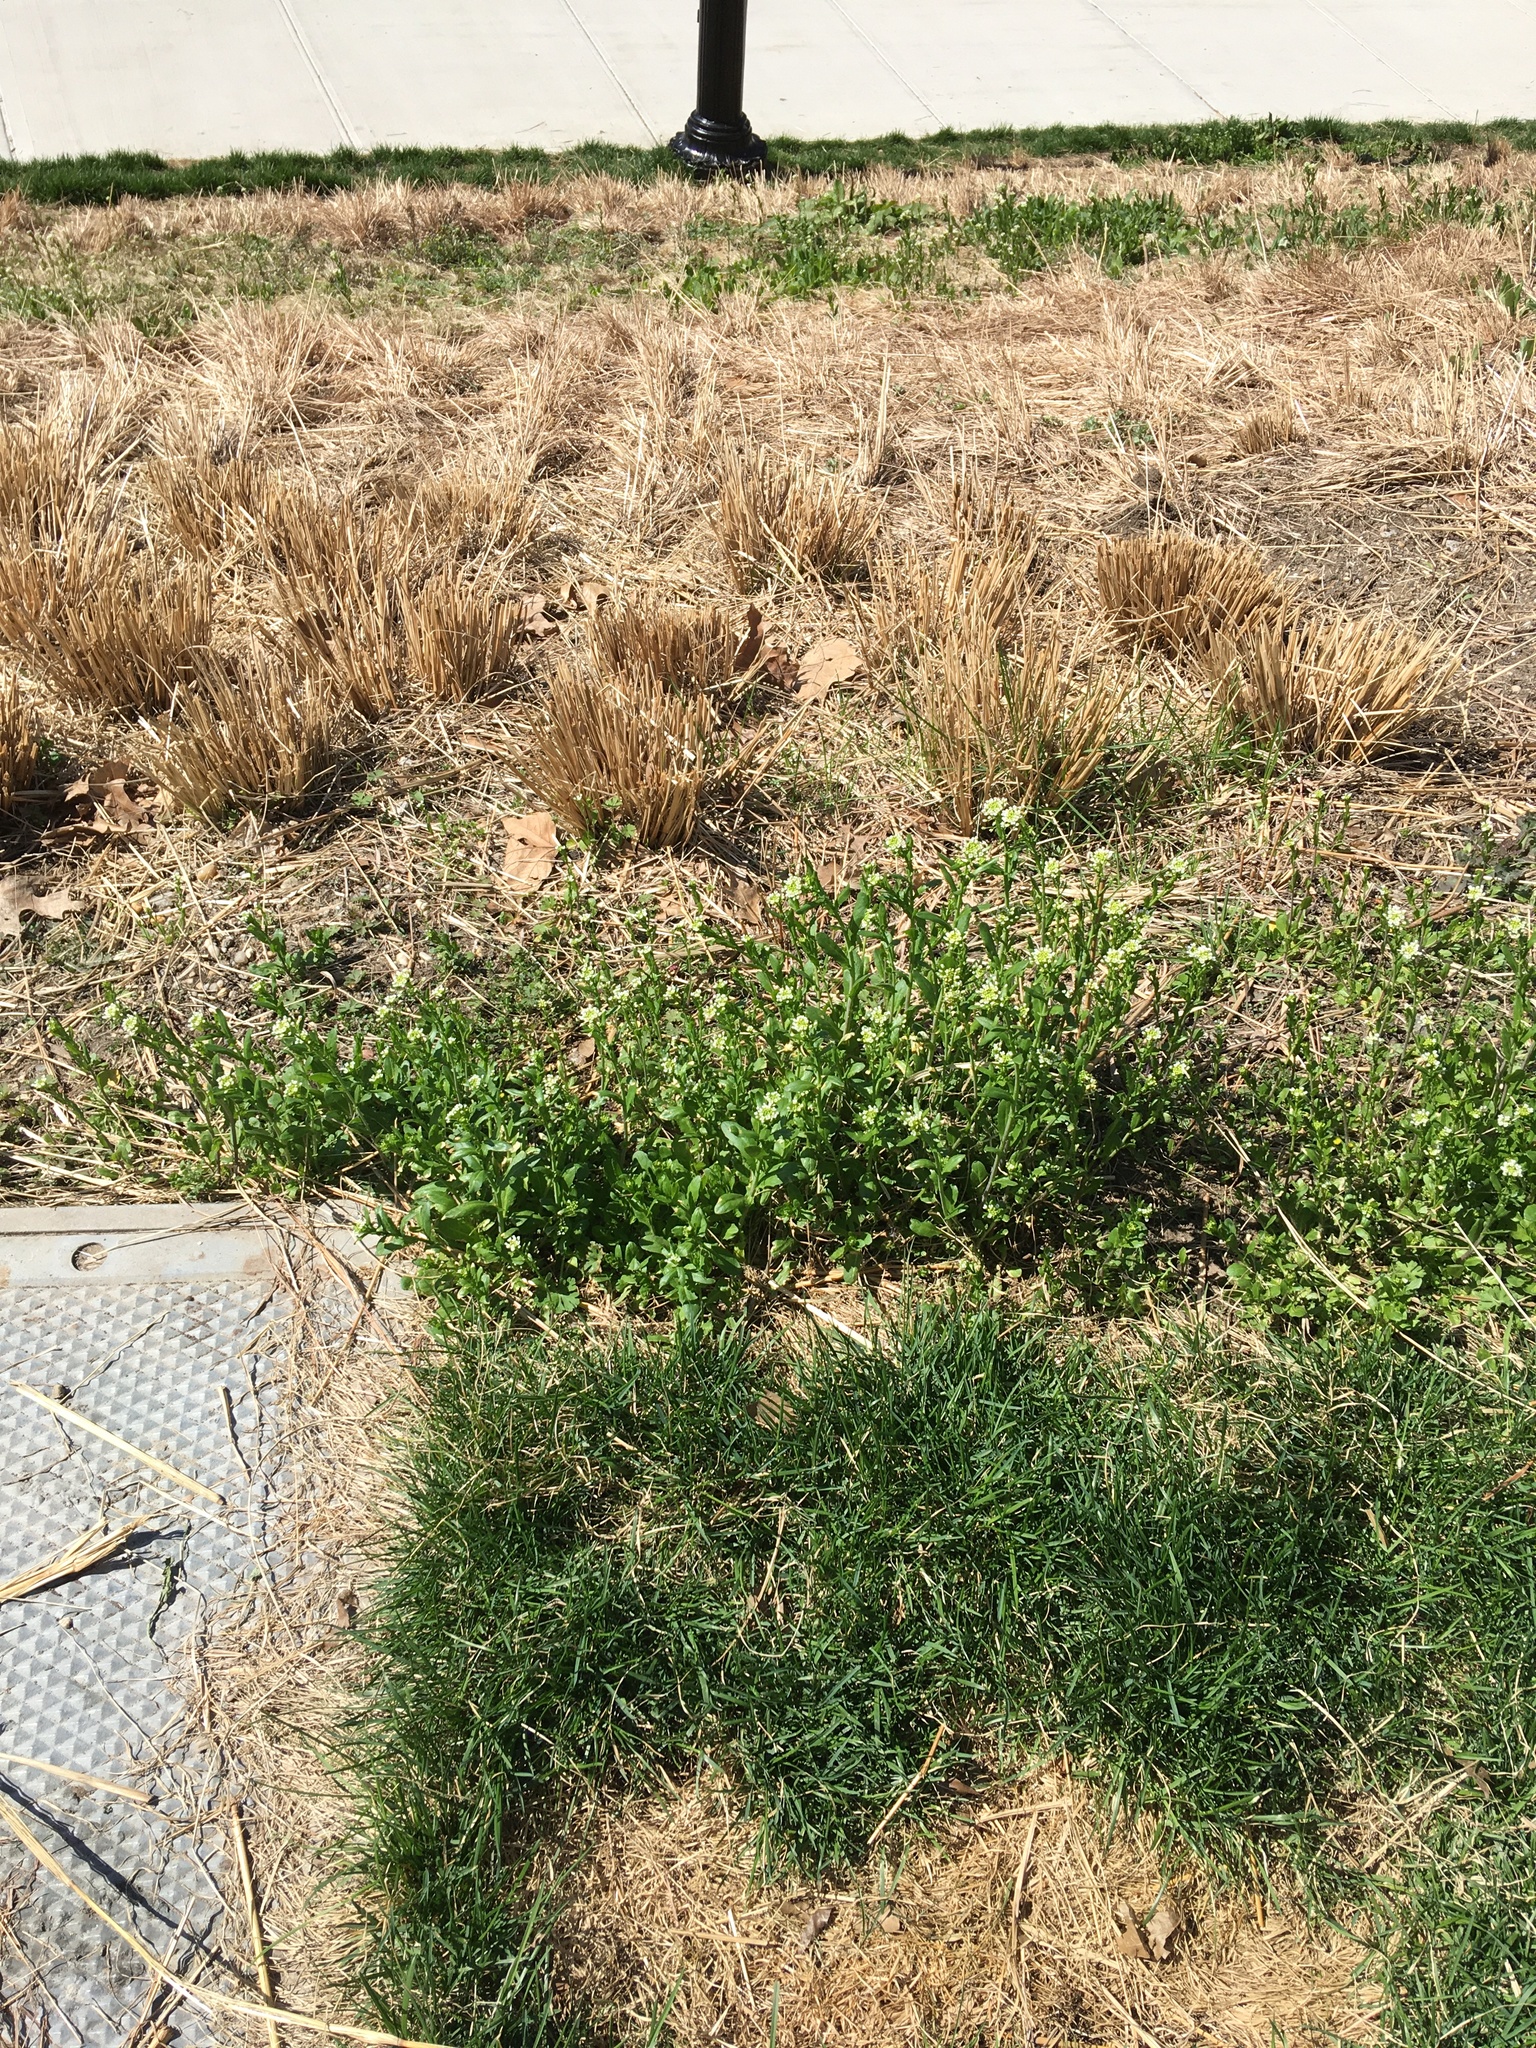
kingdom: Plantae
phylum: Tracheophyta
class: Magnoliopsida
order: Brassicales
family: Brassicaceae
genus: Mummenhoffia
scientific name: Mummenhoffia alliacea
